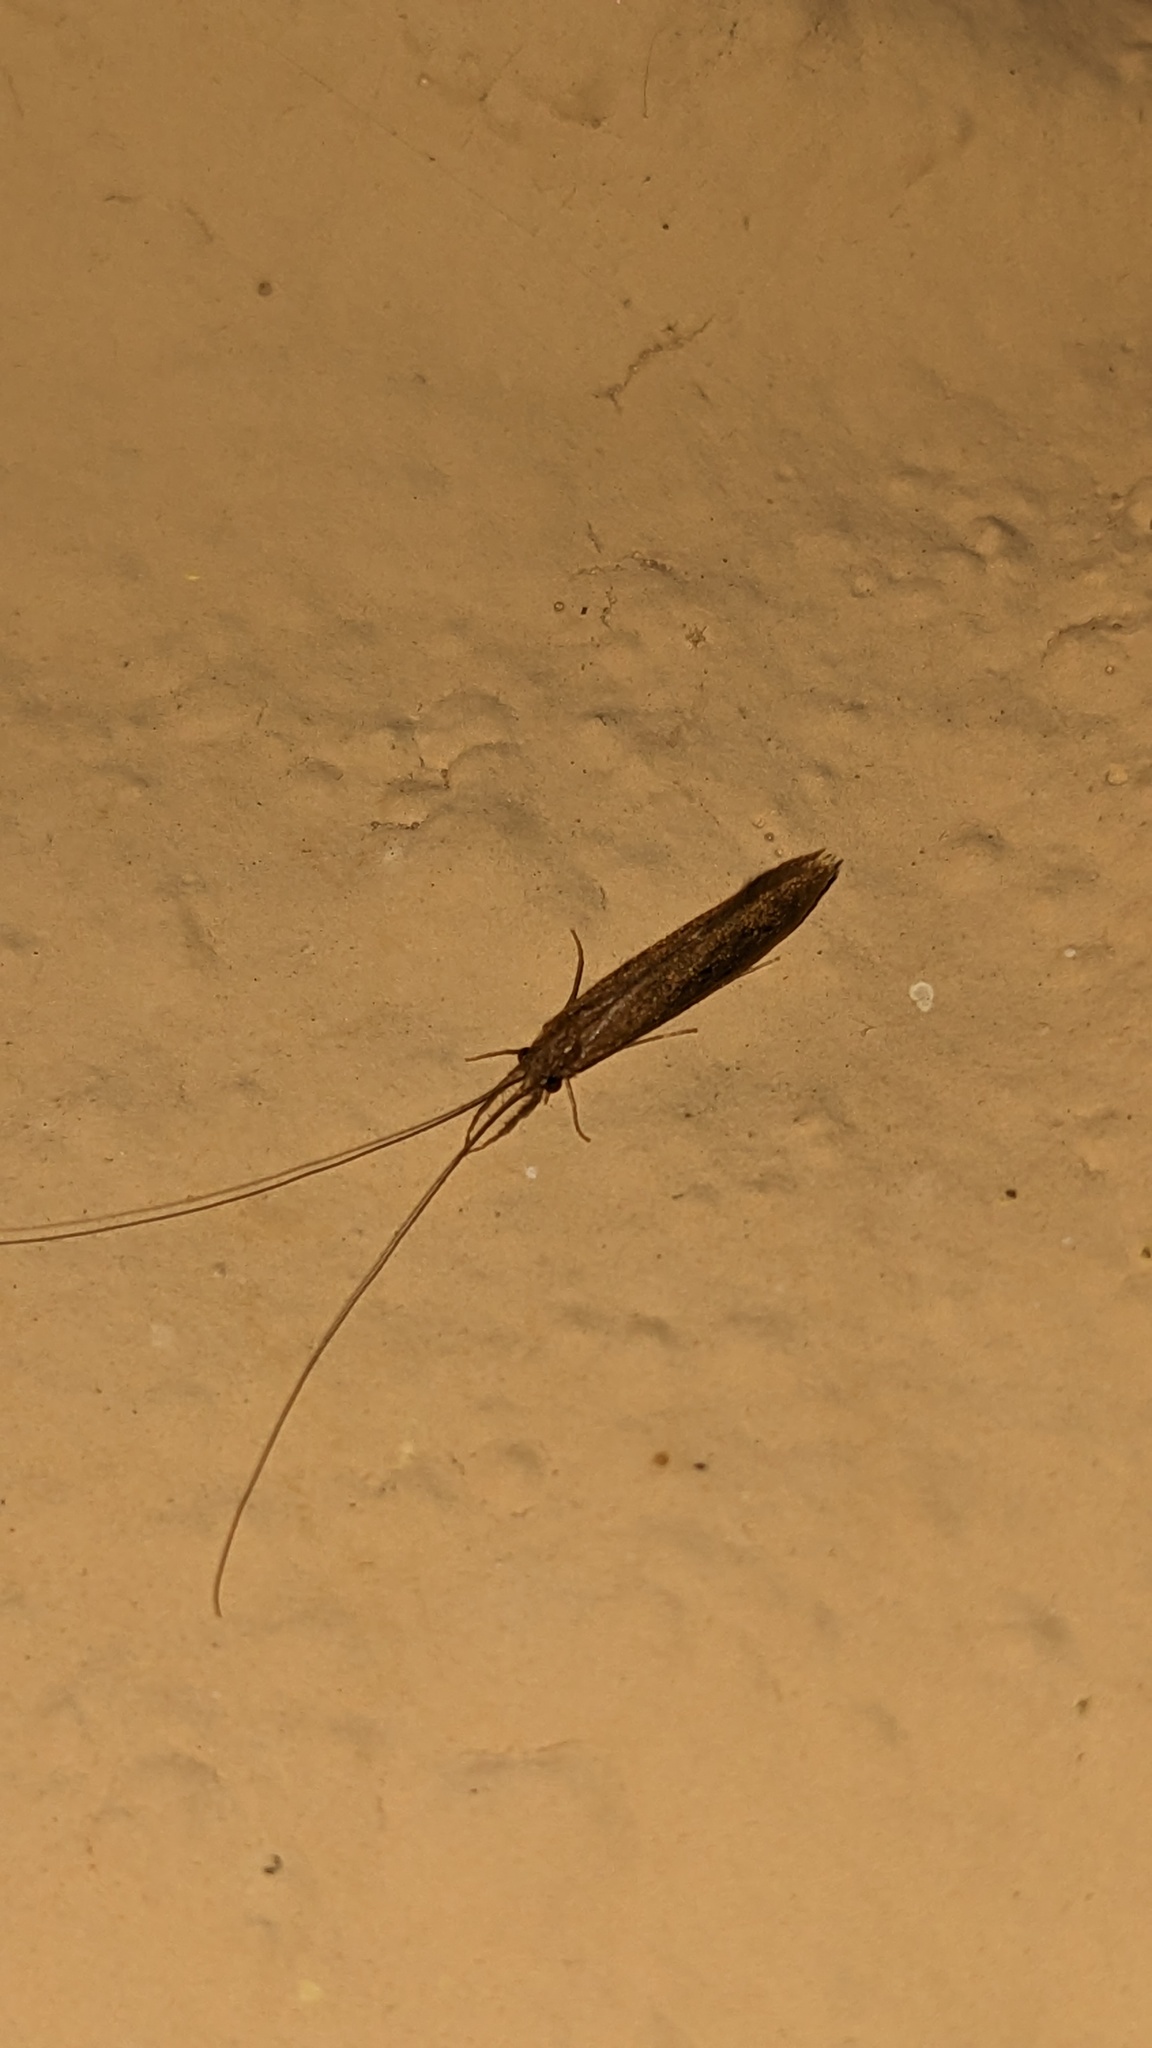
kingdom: Animalia
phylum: Arthropoda
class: Insecta
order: Trichoptera
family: Leptoceridae
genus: Leptocerus
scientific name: Leptocerus americanus
